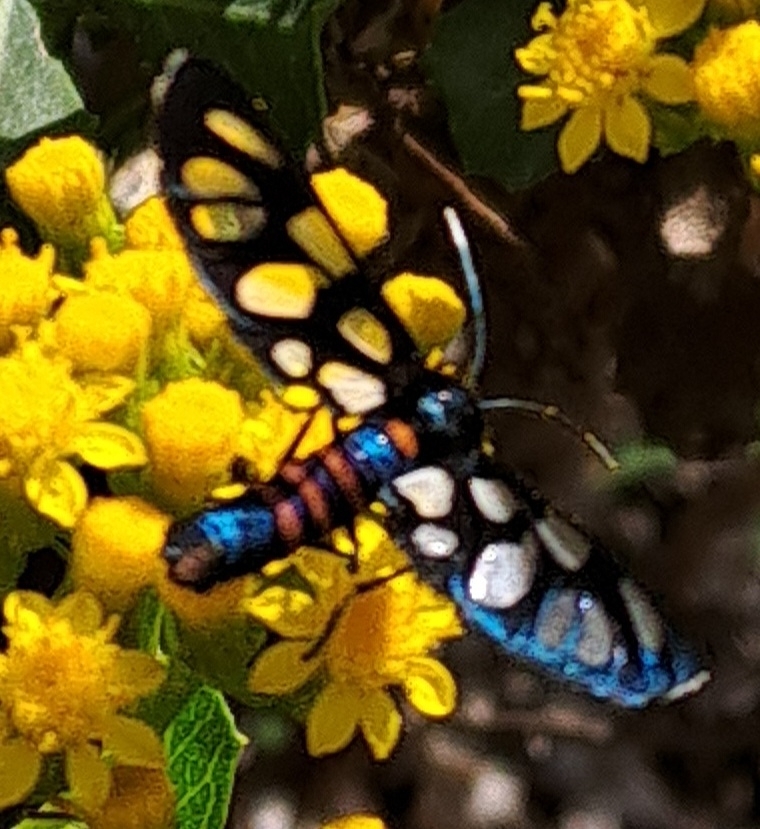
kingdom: Animalia
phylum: Arthropoda
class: Insecta
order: Lepidoptera
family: Erebidae
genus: Amata
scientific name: Amata cerbera
